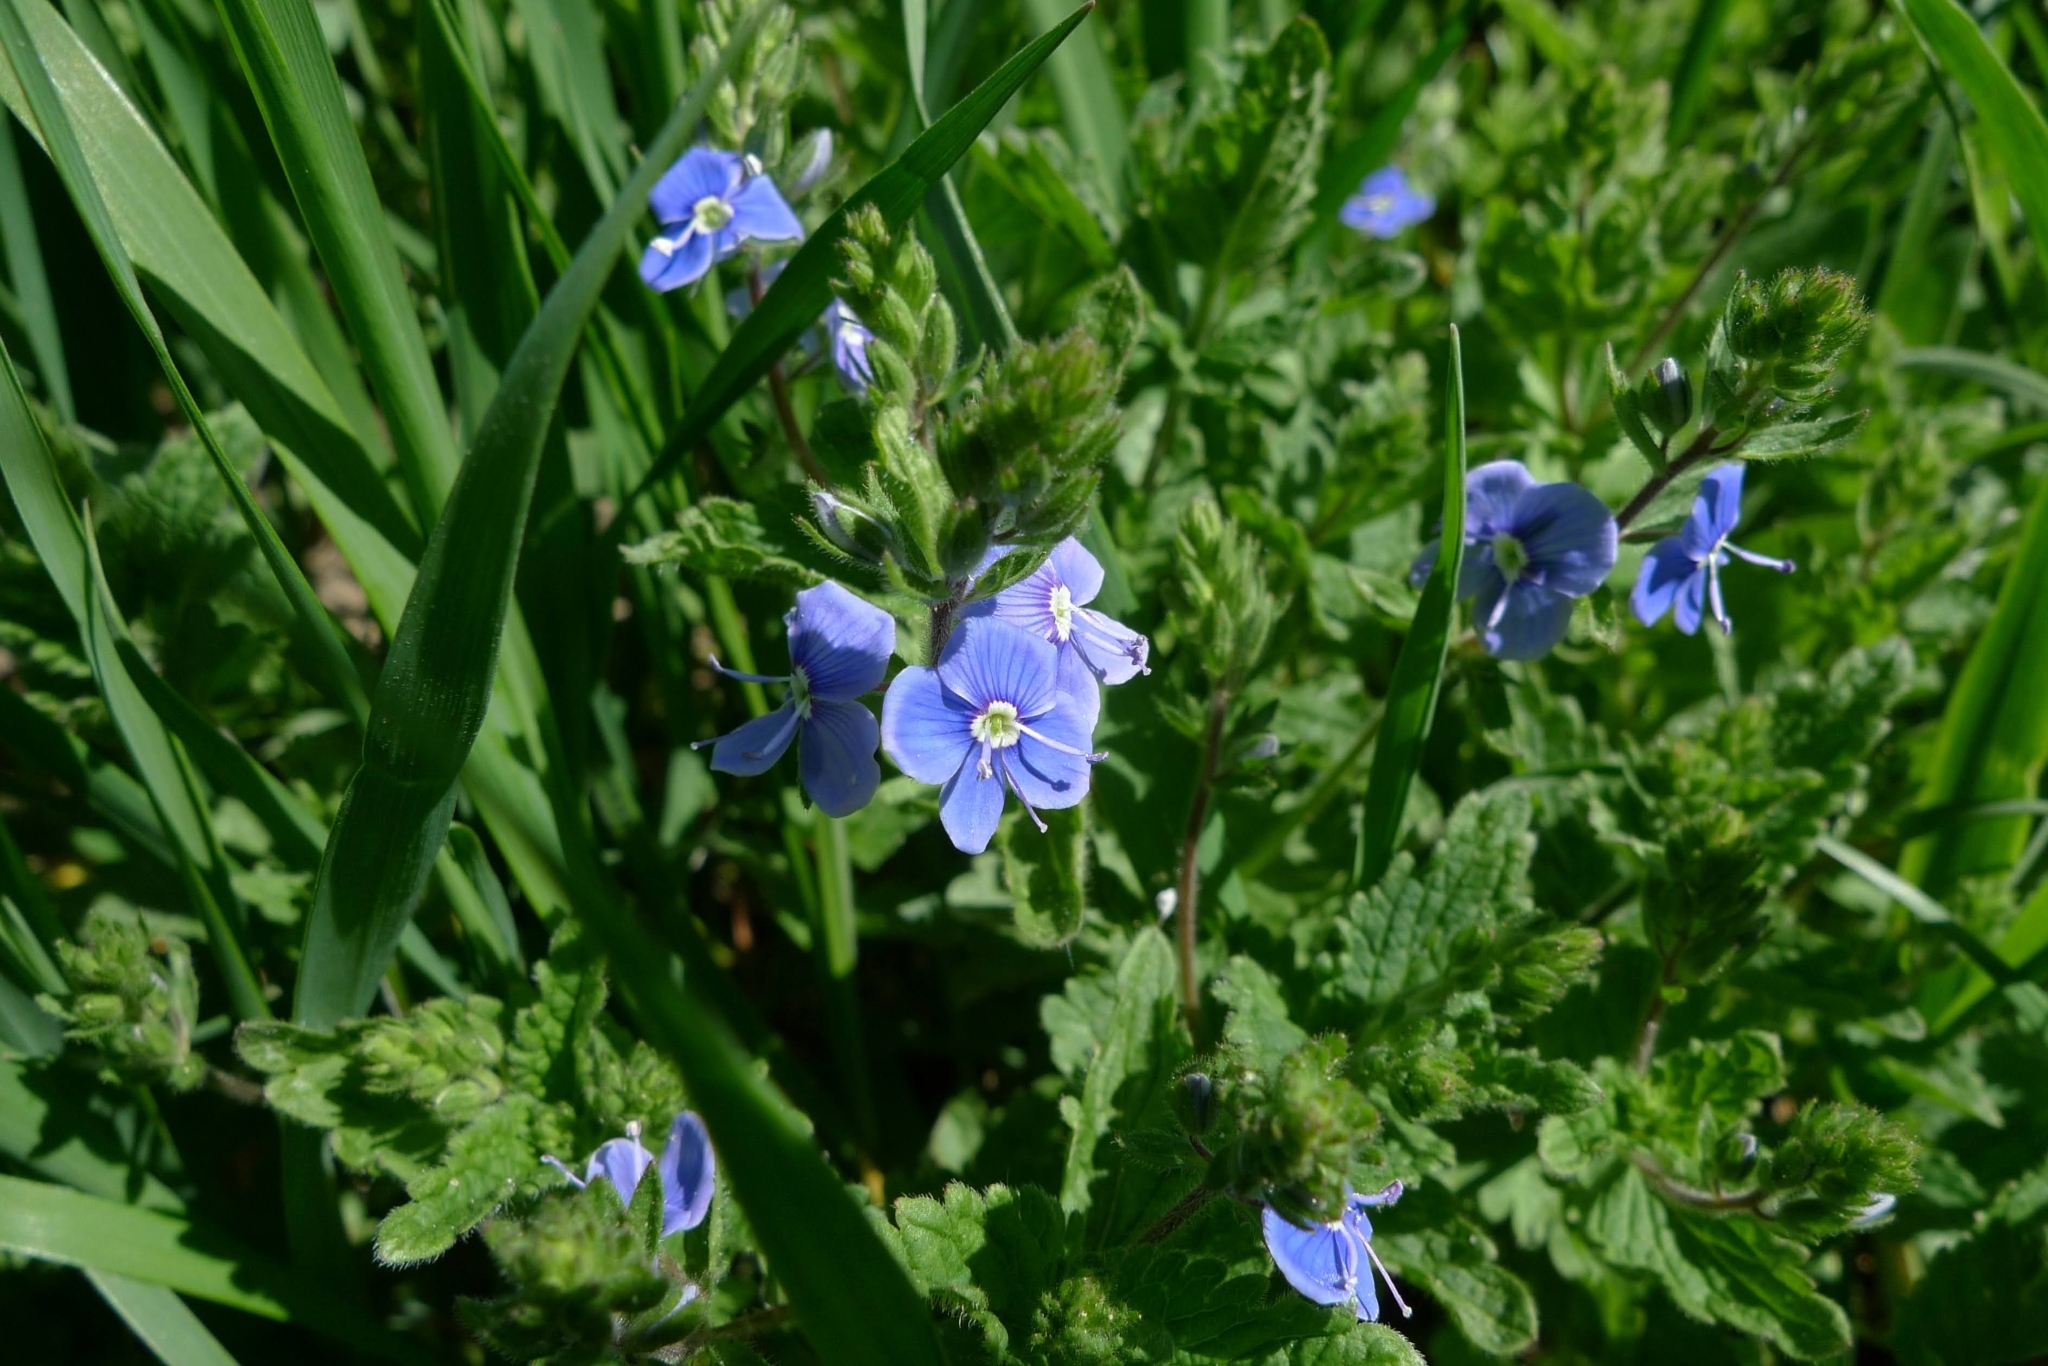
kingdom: Plantae
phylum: Tracheophyta
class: Magnoliopsida
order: Lamiales
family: Plantaginaceae
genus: Veronica
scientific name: Veronica chamaedrys
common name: Germander speedwell
